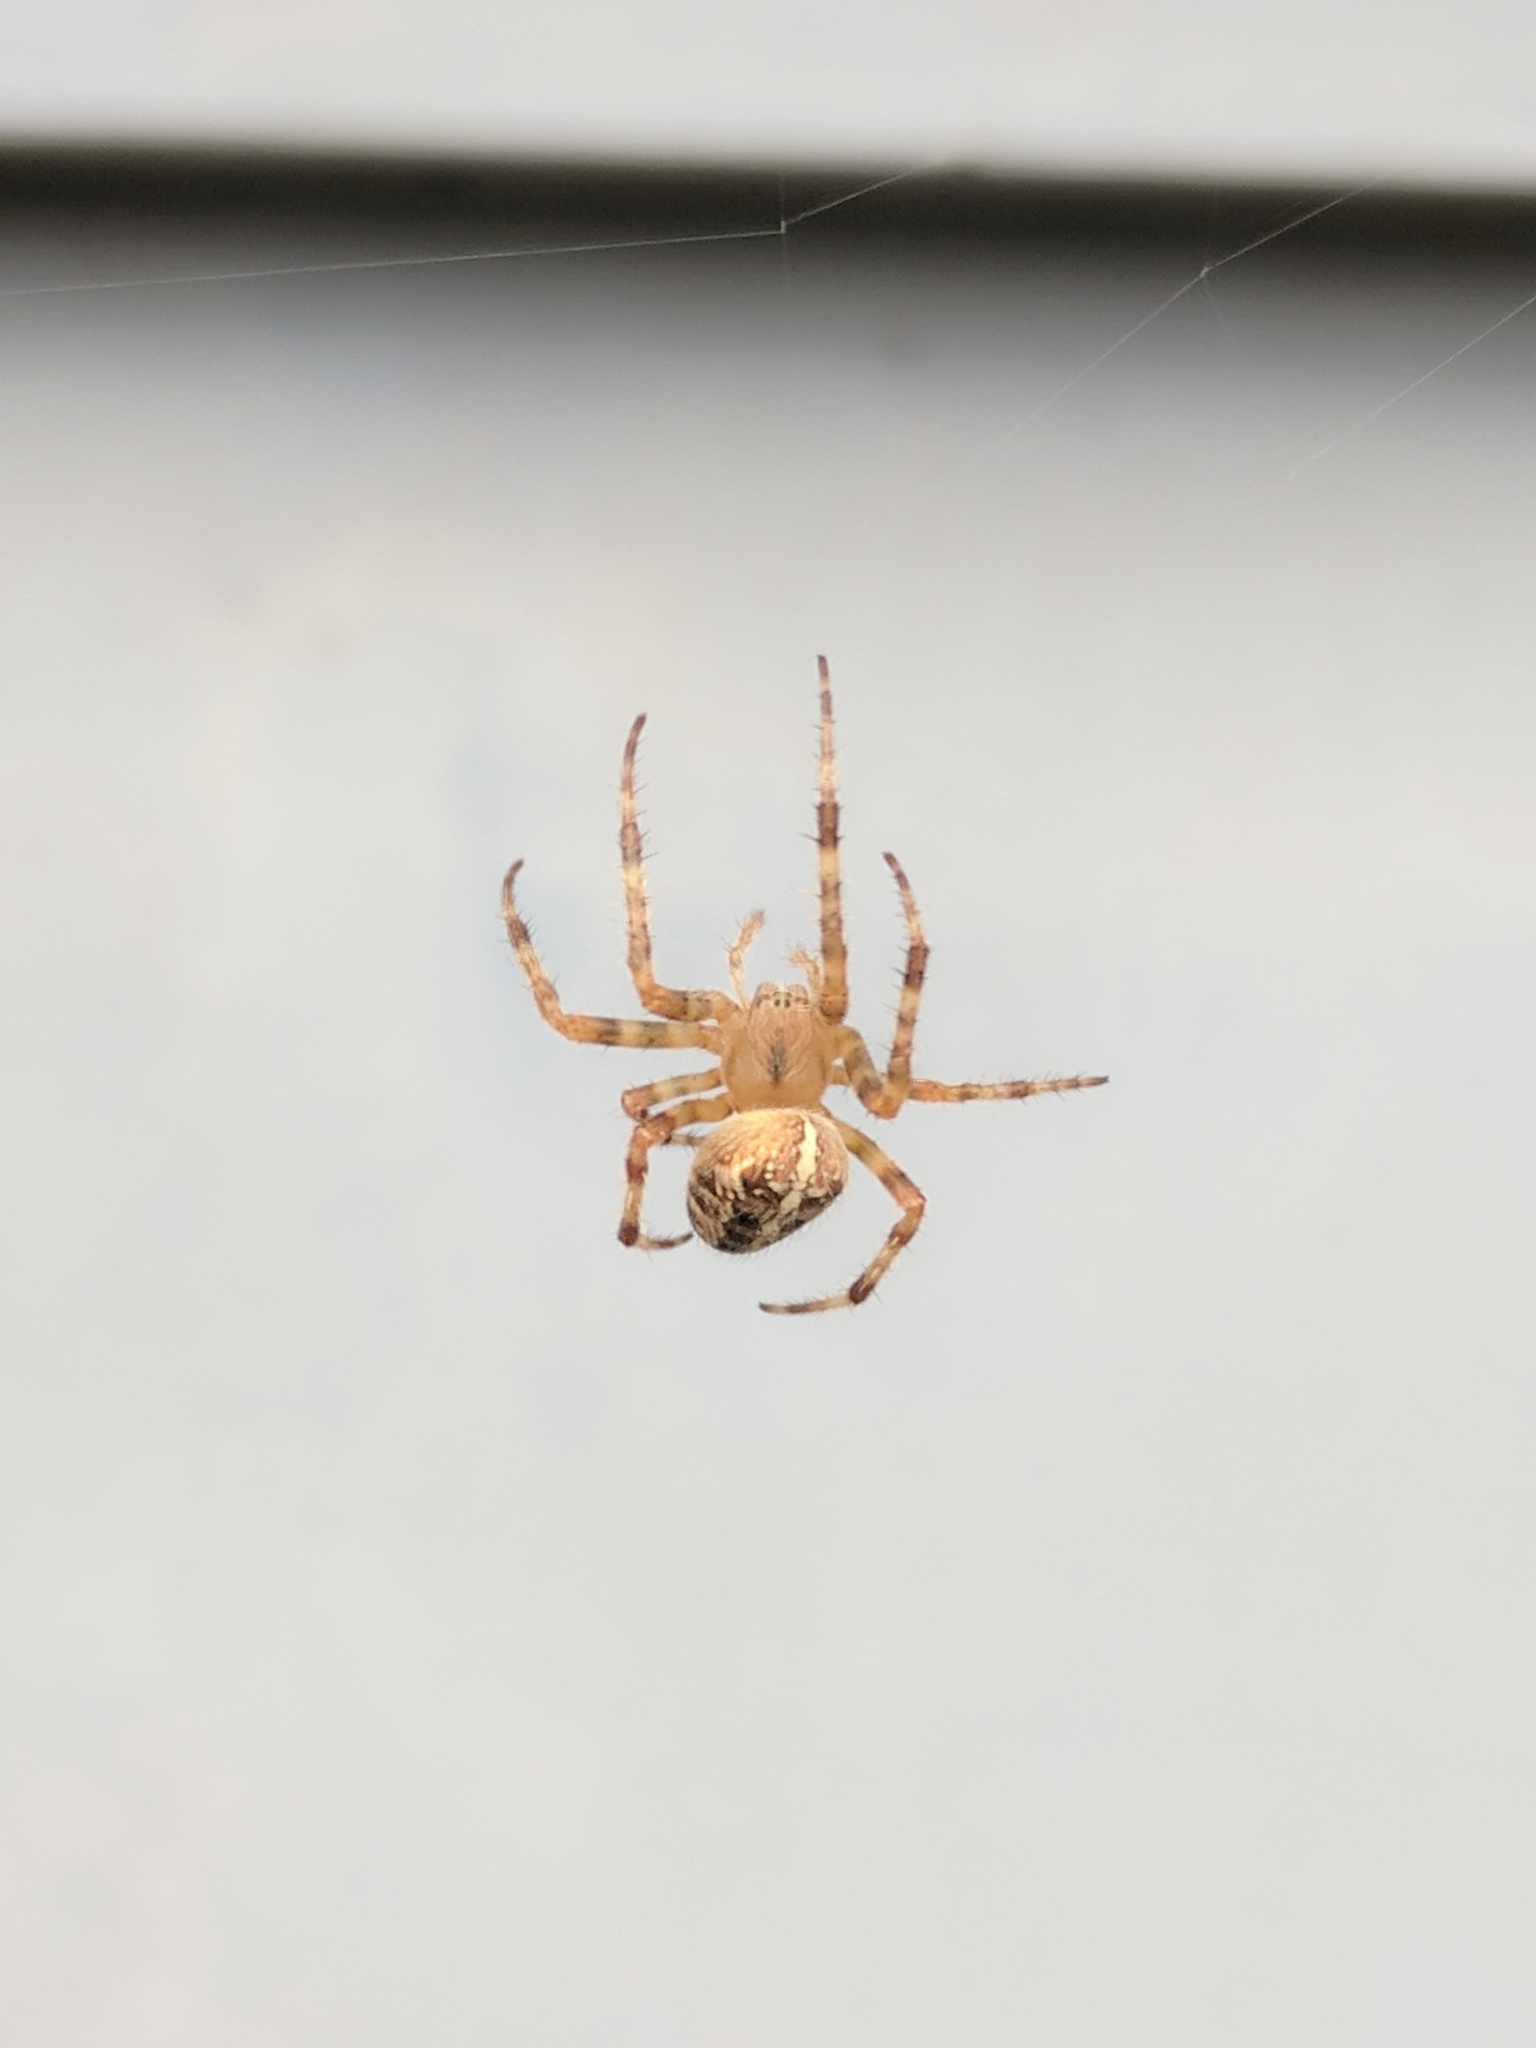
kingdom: Animalia
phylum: Arthropoda
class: Arachnida
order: Araneae
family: Araneidae
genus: Araneus
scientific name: Araneus diadematus
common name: Cross orbweaver
